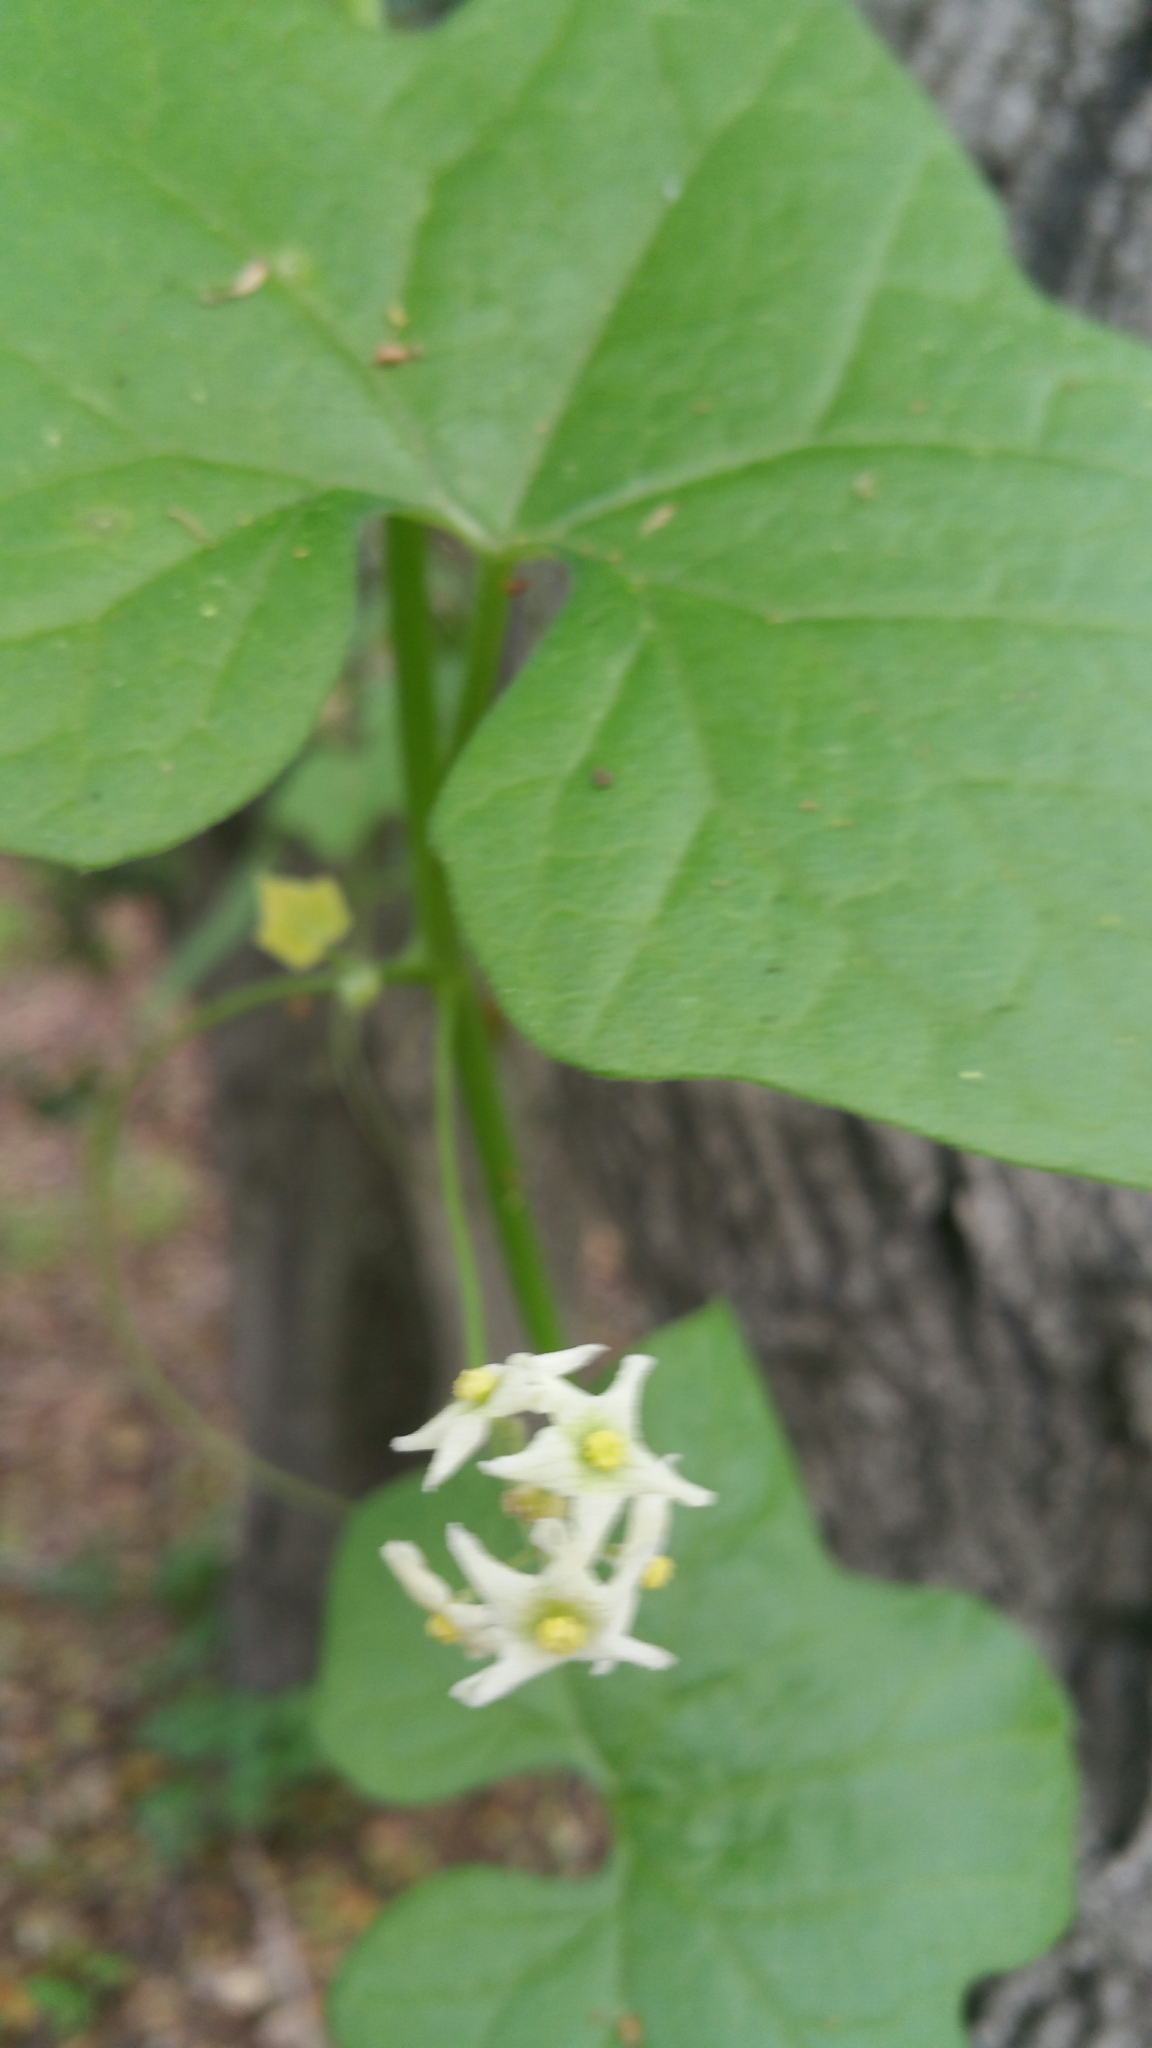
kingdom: Plantae
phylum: Tracheophyta
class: Magnoliopsida
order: Cucurbitales
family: Cucurbitaceae
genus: Marah
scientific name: Marah fabacea
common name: California manroot
